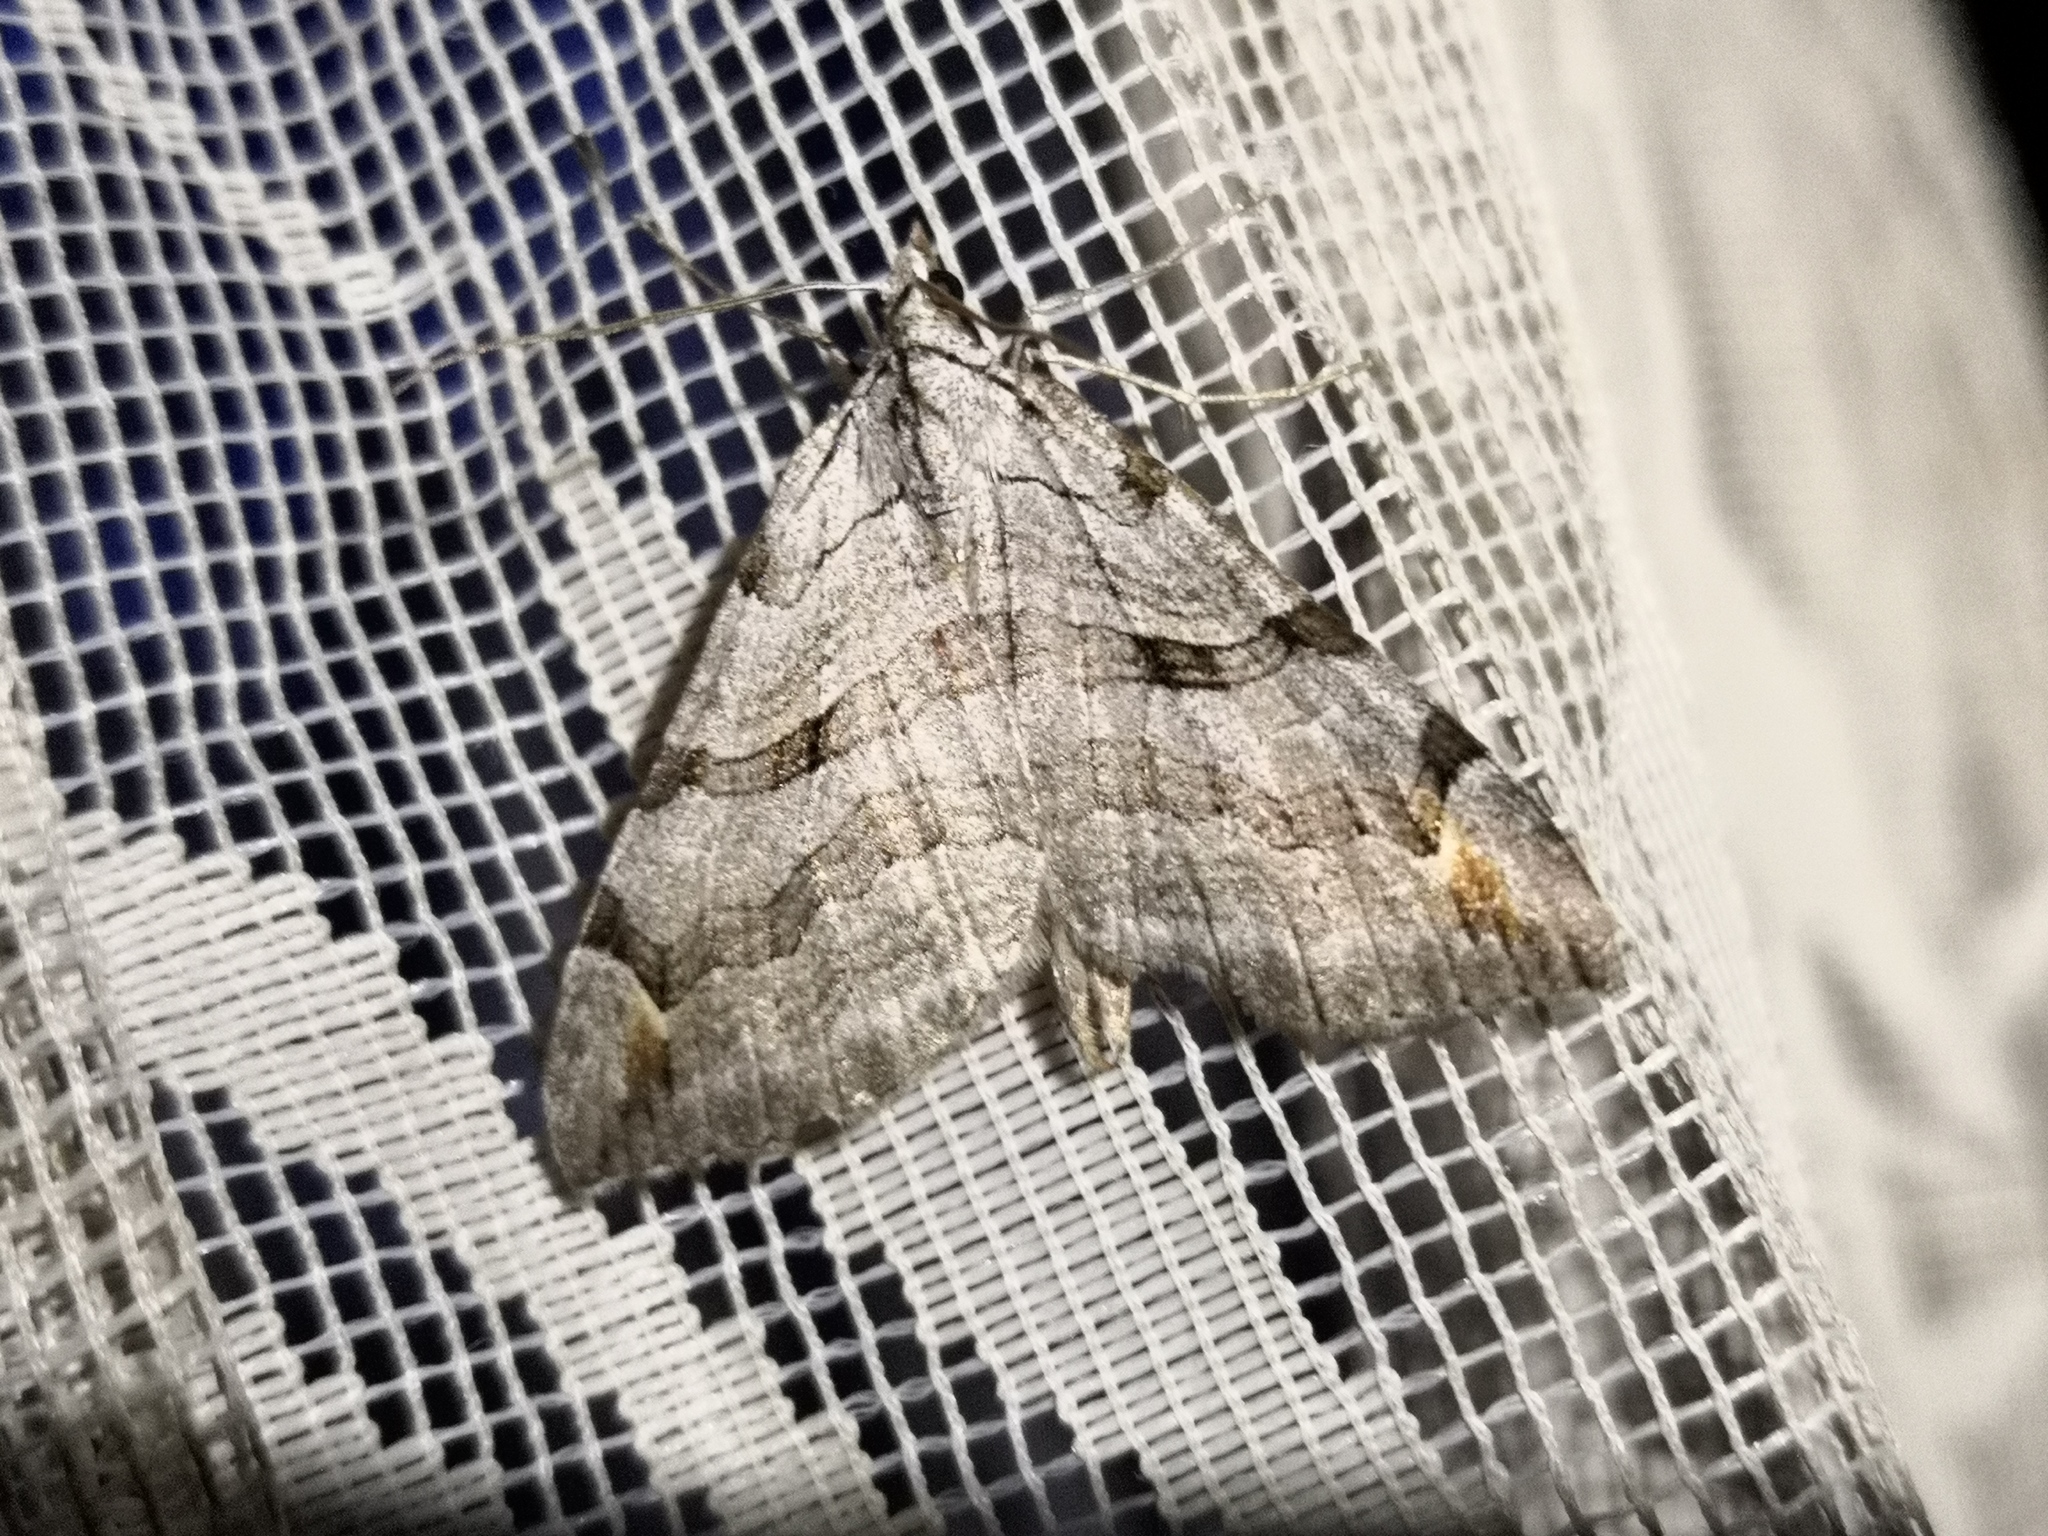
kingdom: Animalia
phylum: Arthropoda
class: Insecta
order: Lepidoptera
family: Geometridae
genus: Aplocera
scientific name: Aplocera plagiata
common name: Treble-bar
